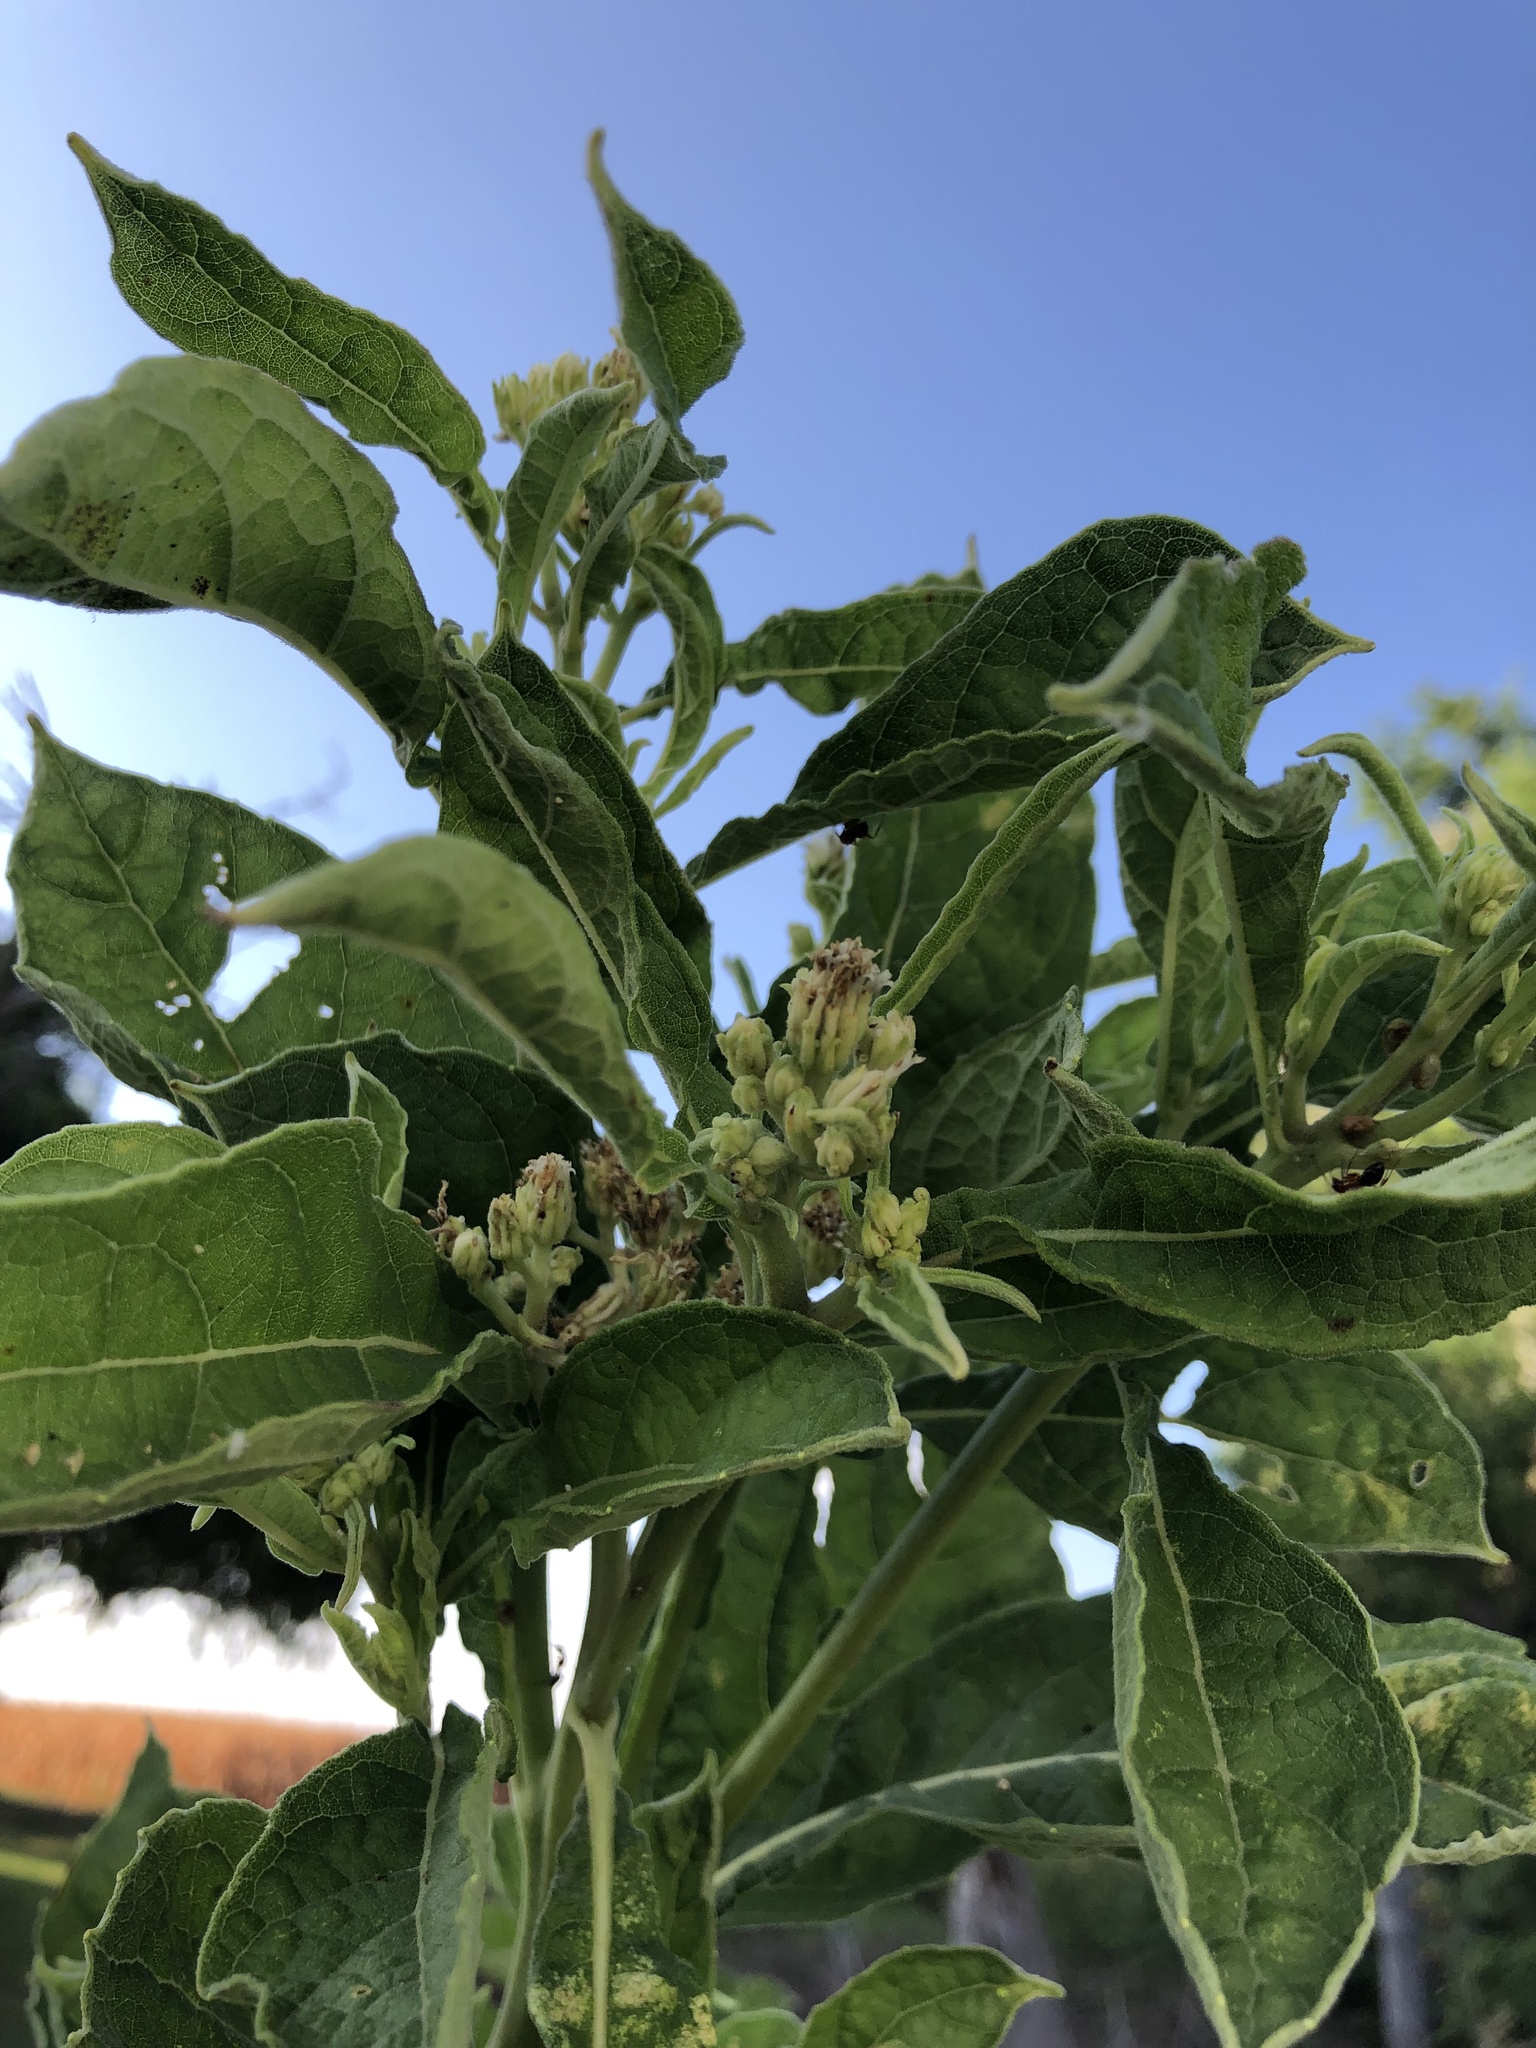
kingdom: Plantae
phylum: Tracheophyta
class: Magnoliopsida
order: Asterales
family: Asteraceae
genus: Verbesina
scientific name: Verbesina virginica
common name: Frostweed
